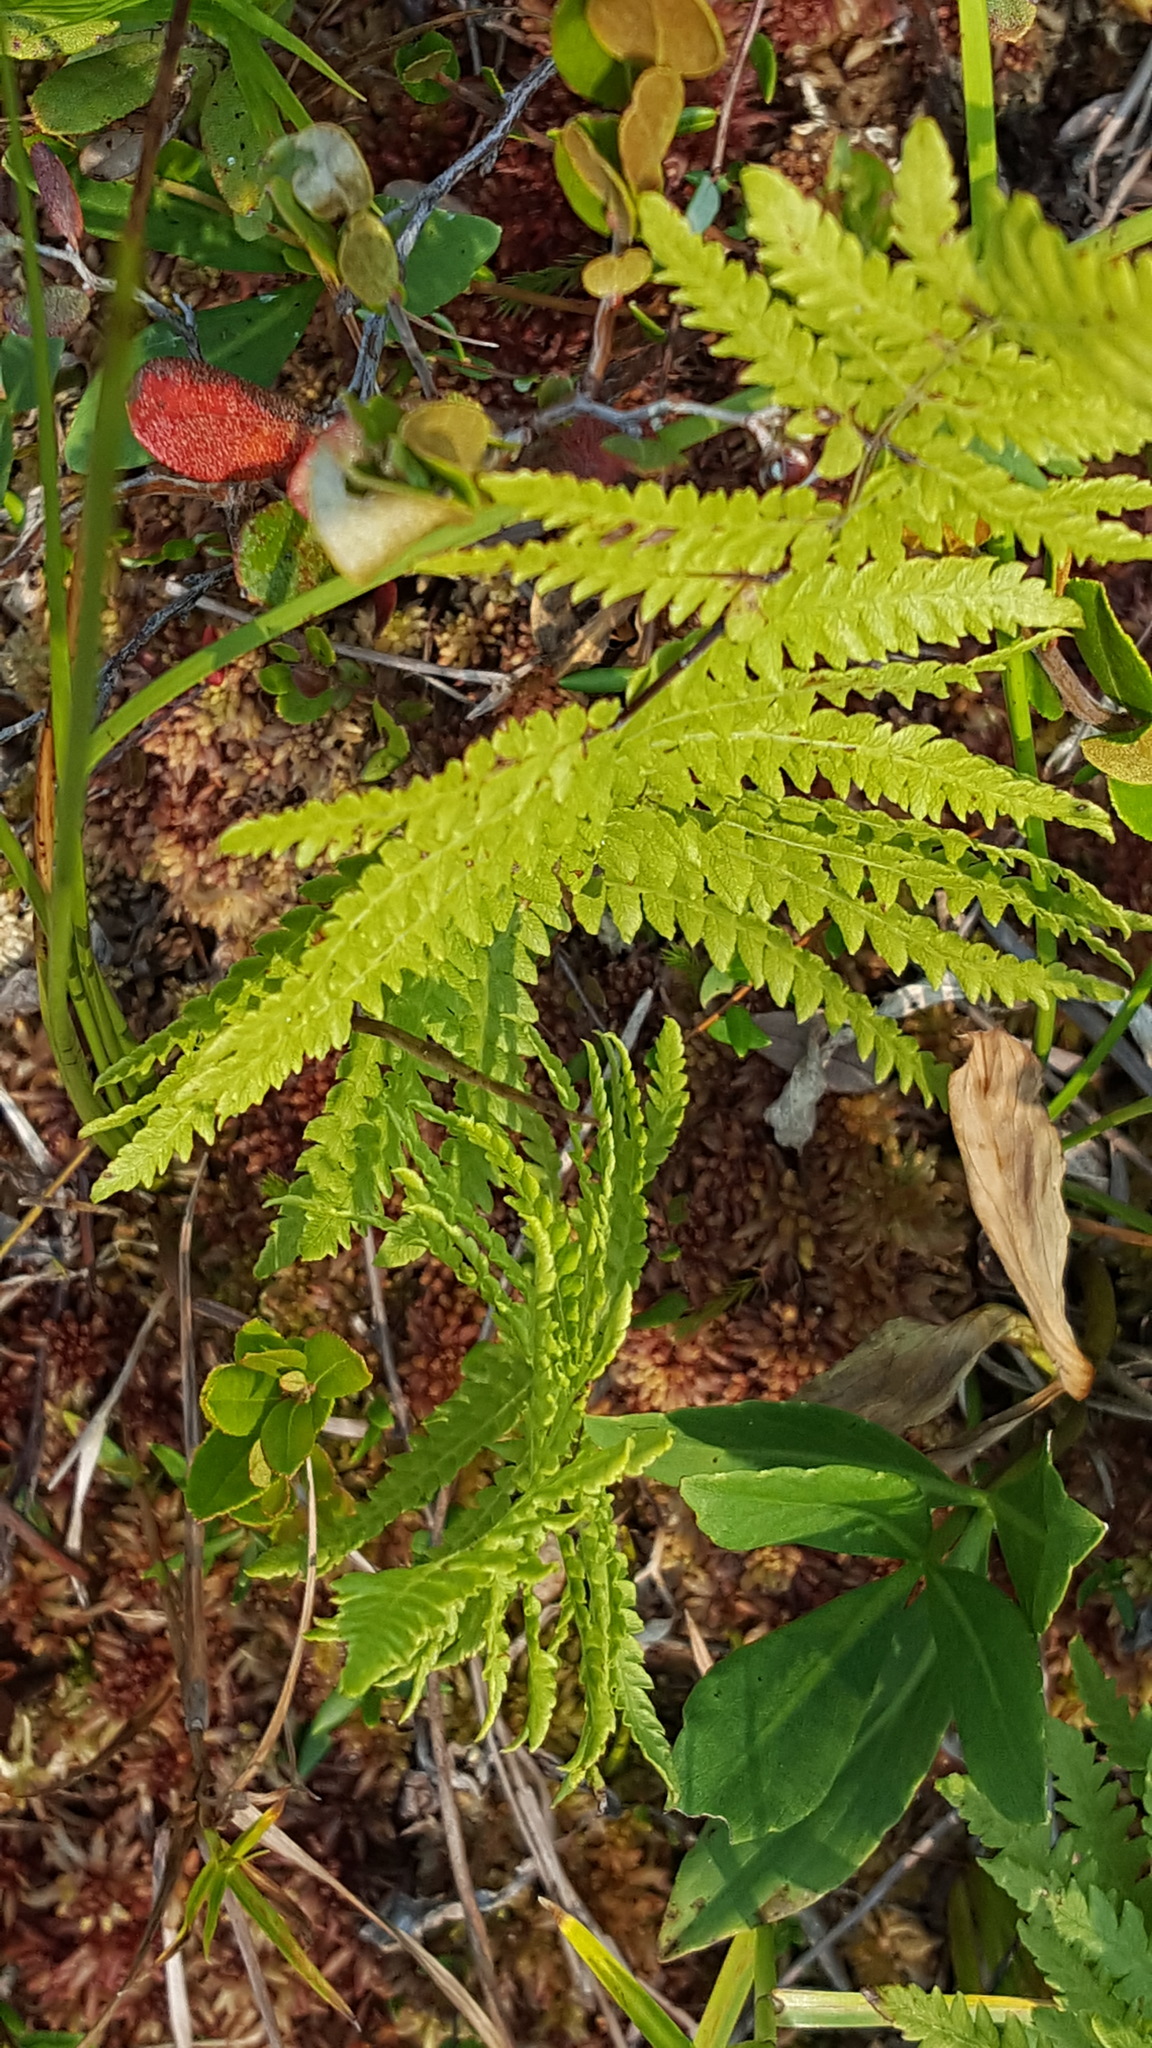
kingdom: Plantae
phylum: Tracheophyta
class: Polypodiopsida
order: Polypodiales
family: Thelypteridaceae
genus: Thelypteris
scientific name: Thelypteris palustris
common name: Marsh fern
